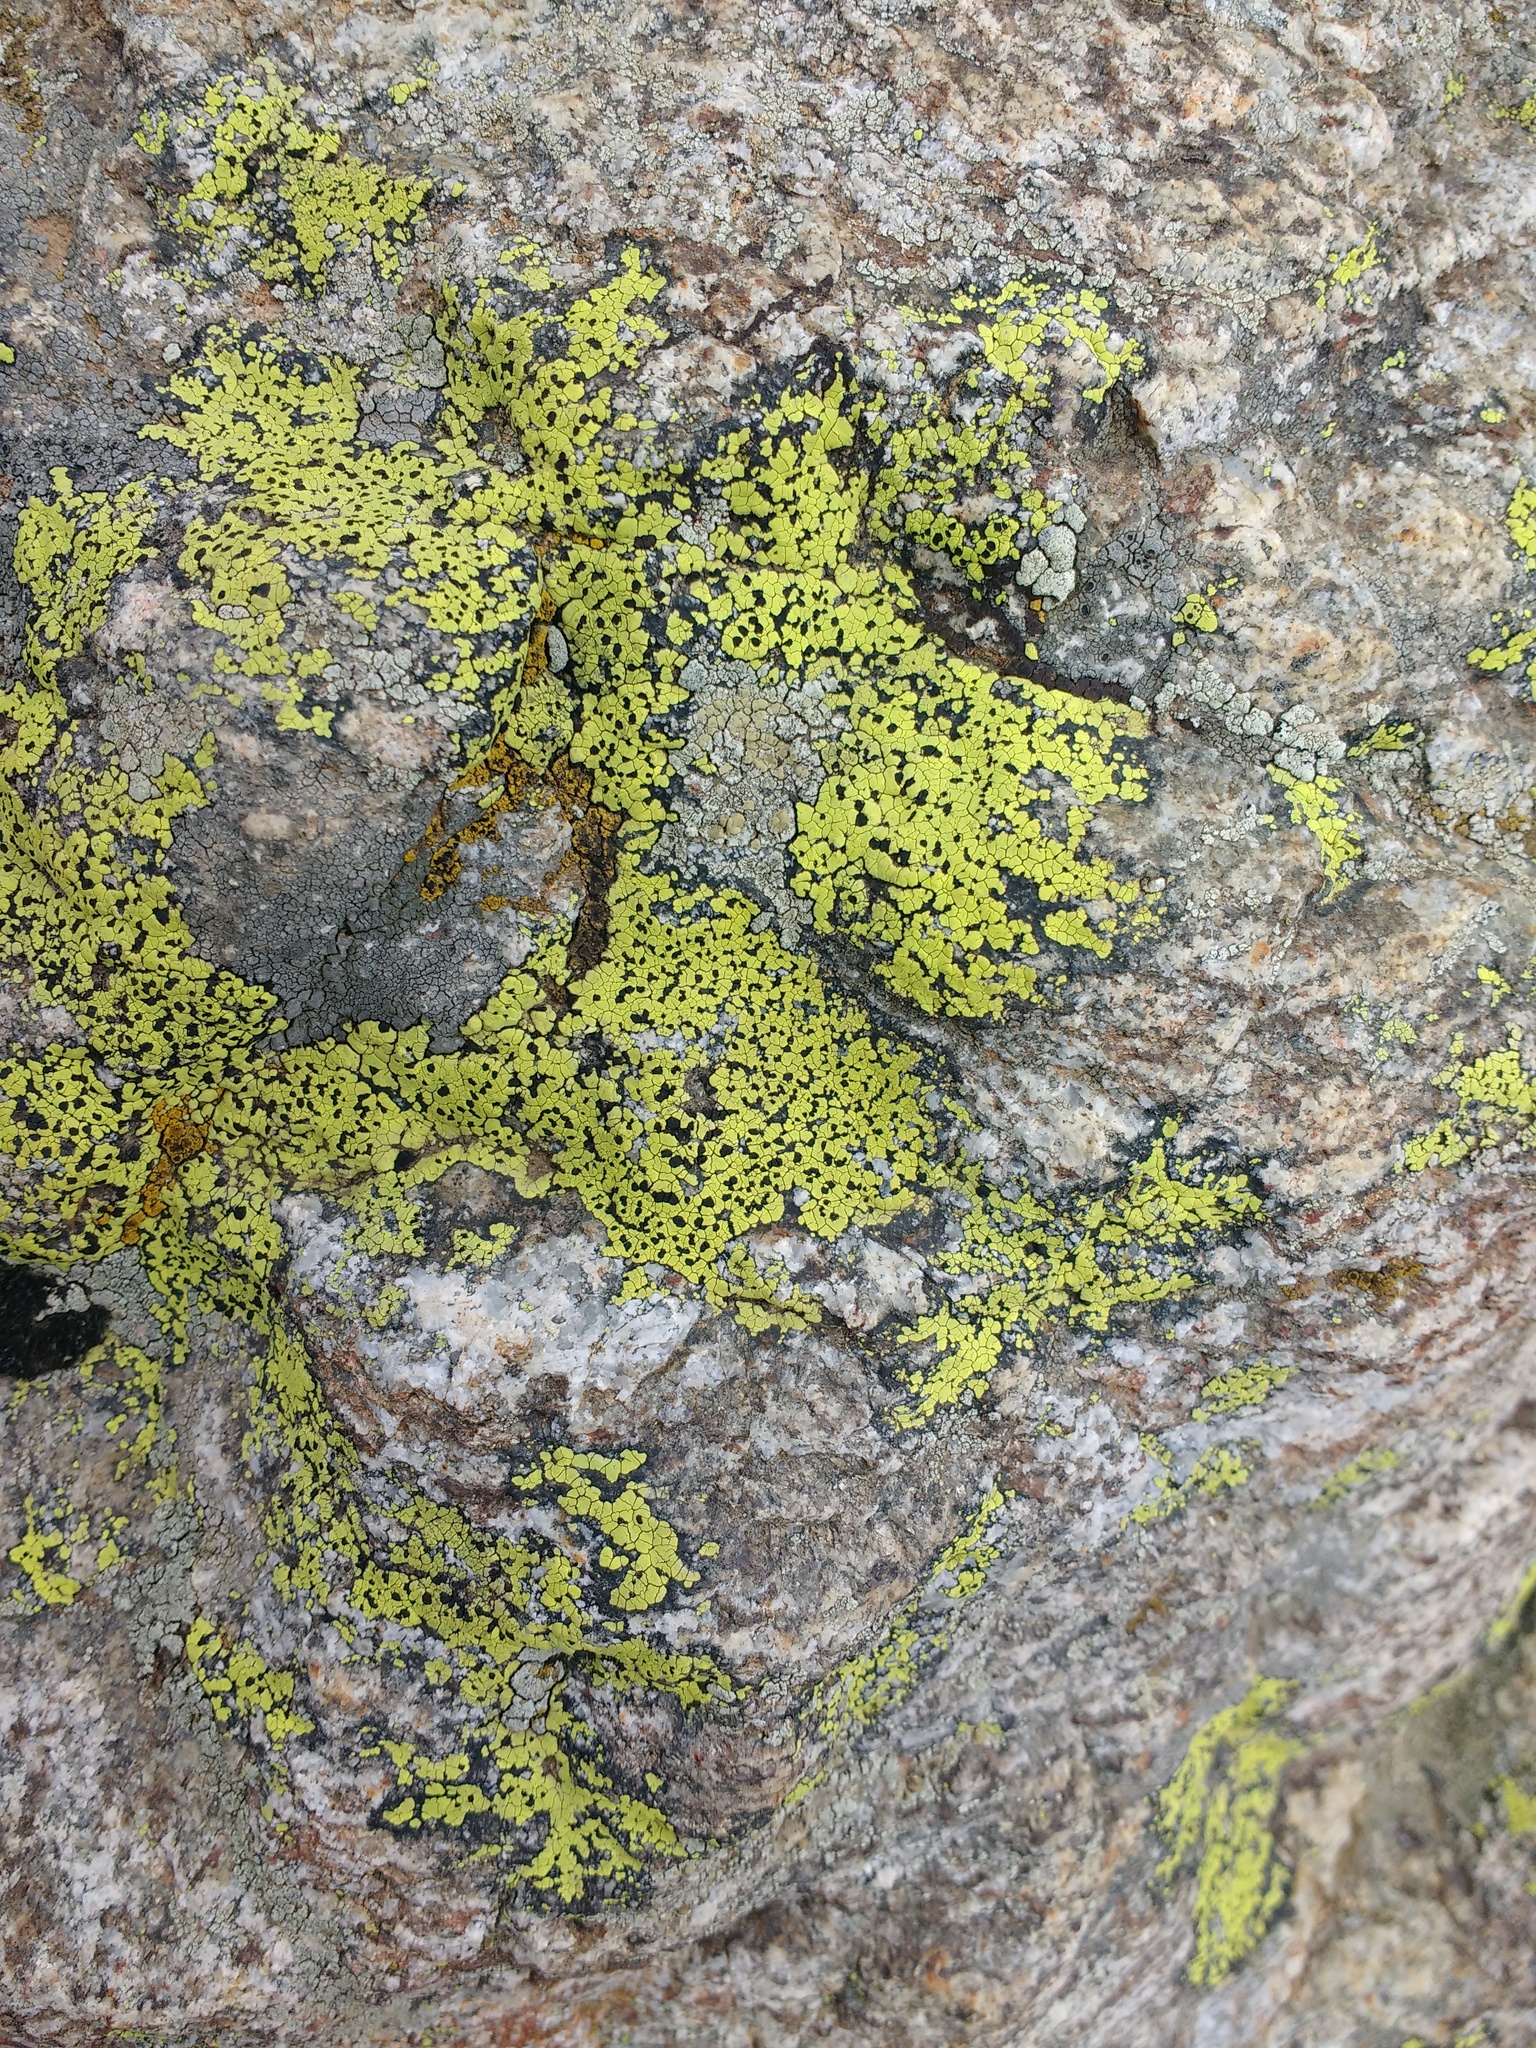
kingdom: Fungi
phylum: Ascomycota
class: Lecanoromycetes
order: Rhizocarpales
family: Rhizocarpaceae
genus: Rhizocarpon
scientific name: Rhizocarpon geographicum
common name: Yellow map lichen
